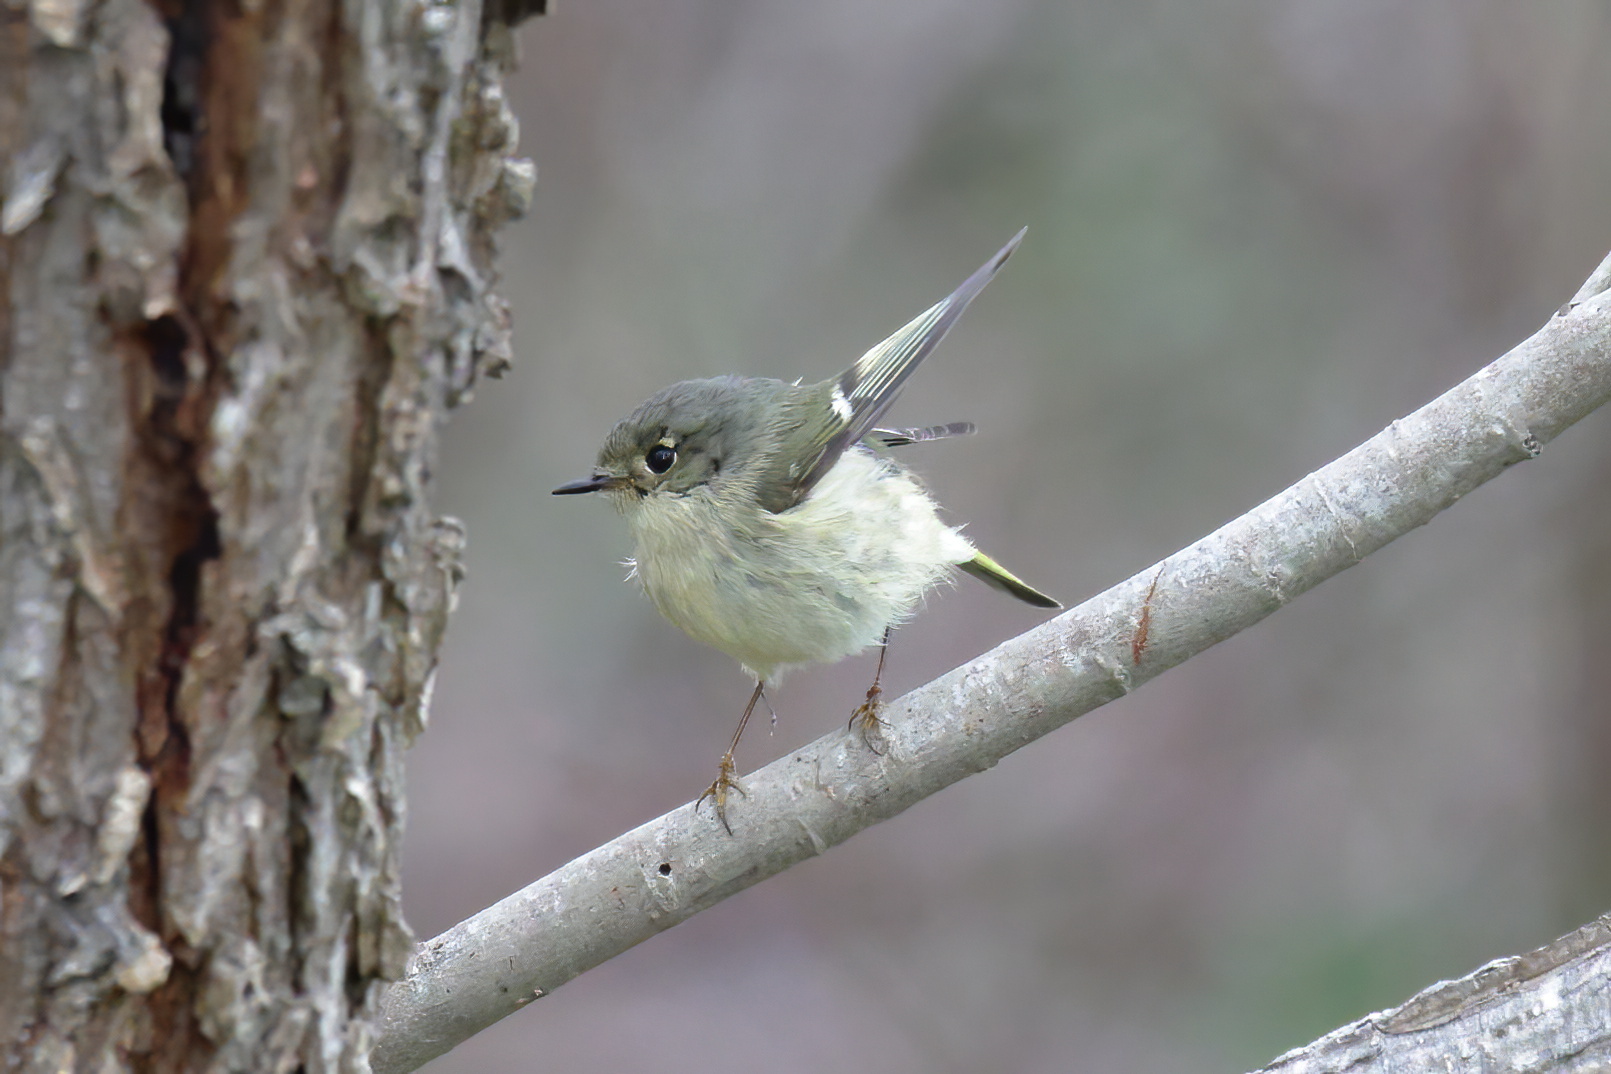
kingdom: Animalia
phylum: Chordata
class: Aves
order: Passeriformes
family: Regulidae
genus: Regulus
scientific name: Regulus calendula
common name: Ruby-crowned kinglet
